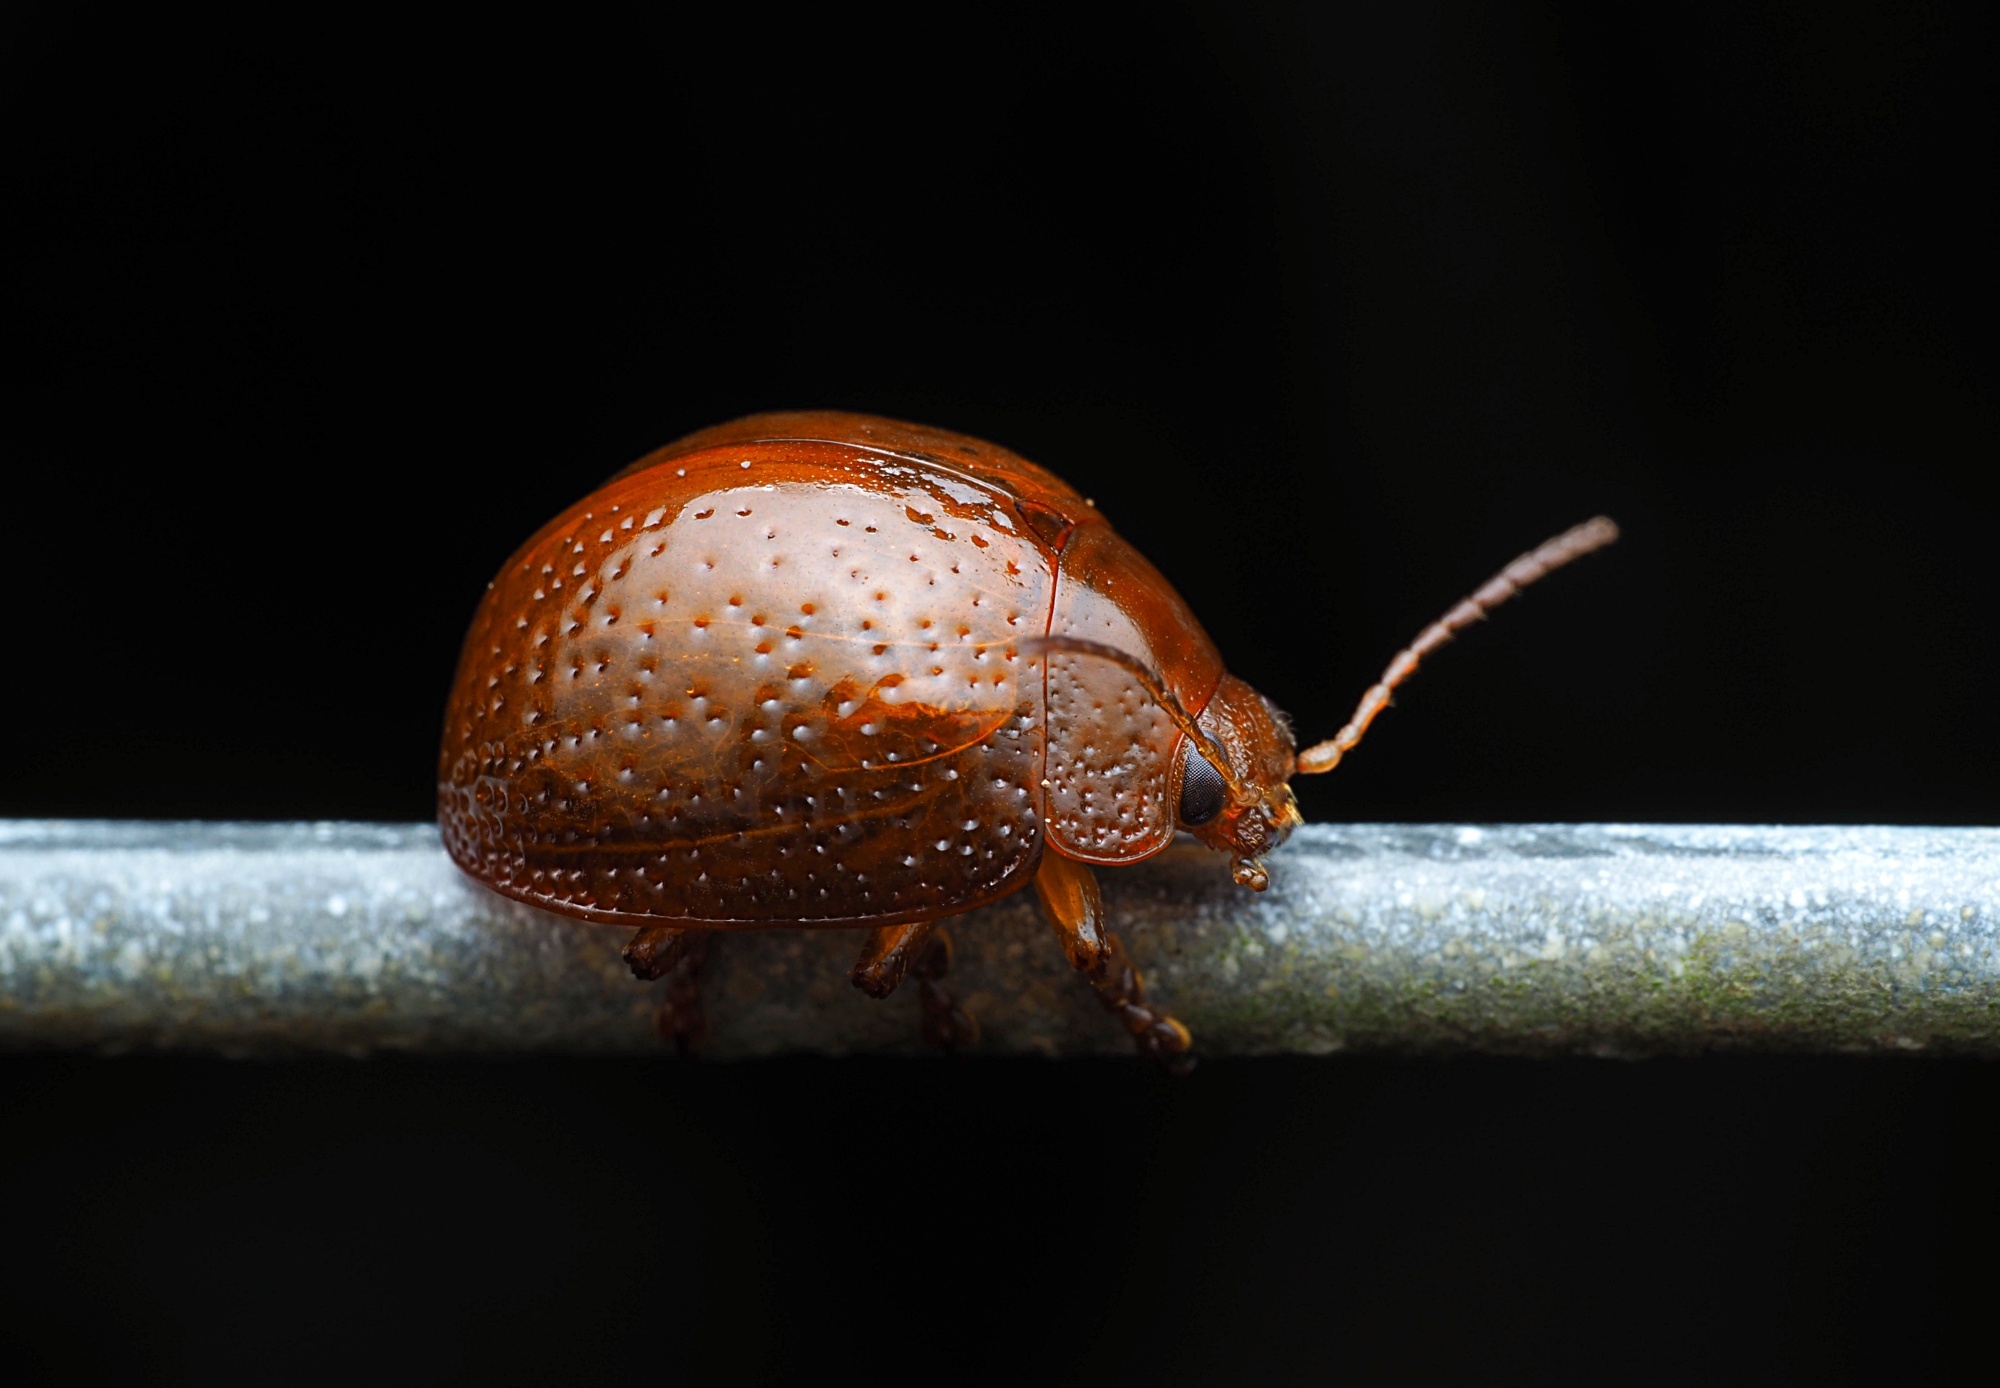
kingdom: Animalia
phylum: Arthropoda
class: Insecta
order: Coleoptera
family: Chrysomelidae
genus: Dicranosterna
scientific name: Dicranosterna
